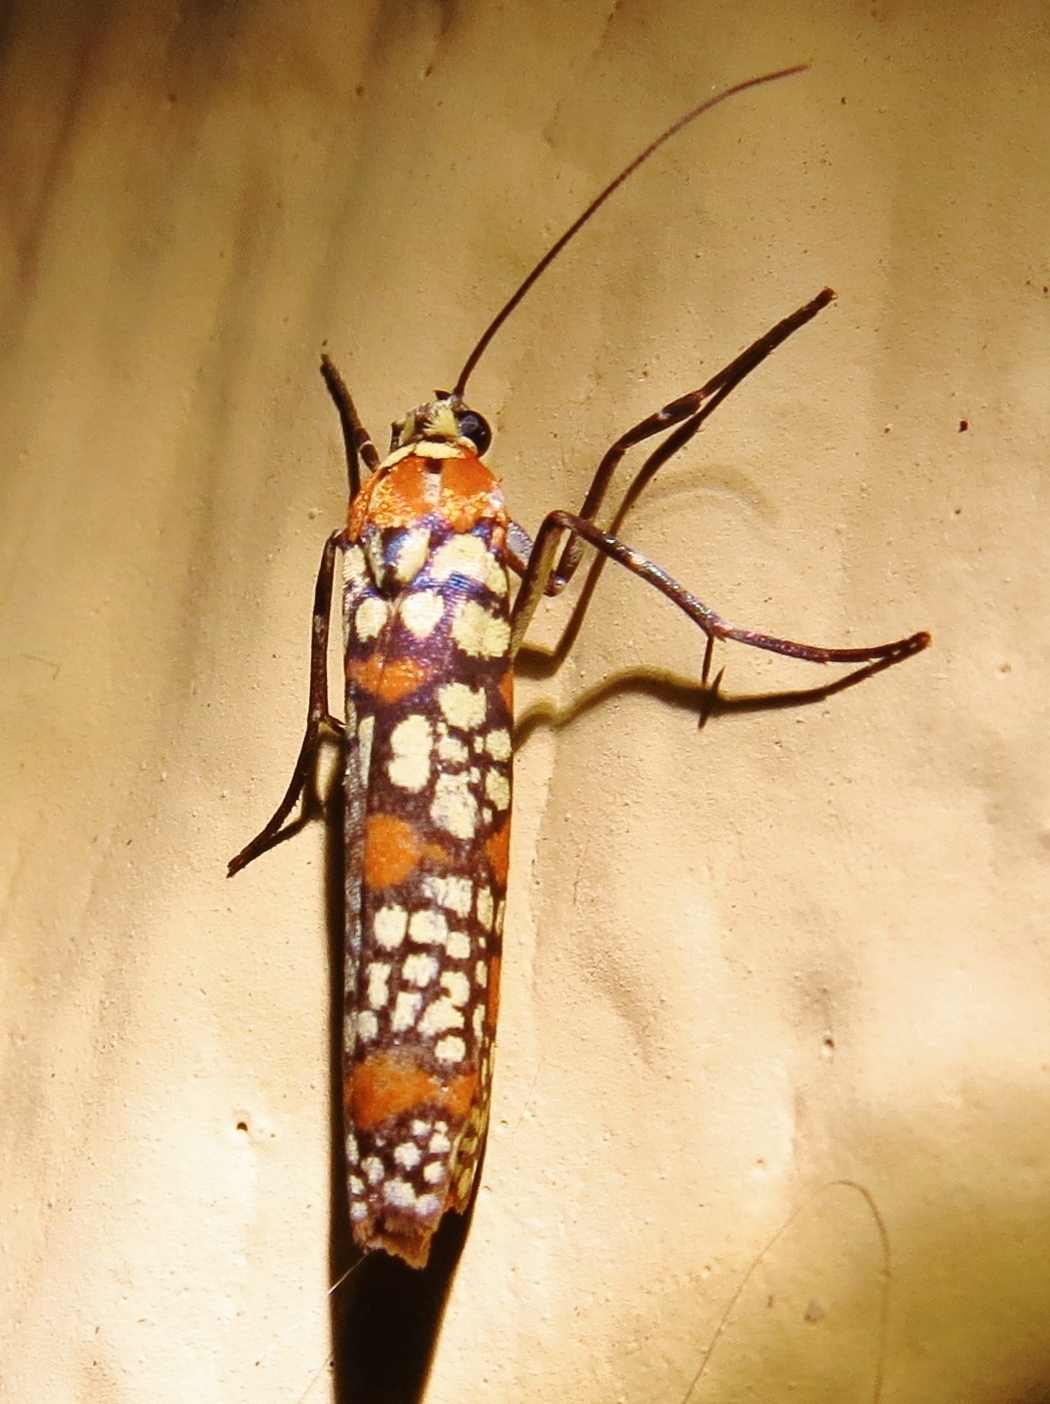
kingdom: Animalia
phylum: Arthropoda
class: Insecta
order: Lepidoptera
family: Attevidae
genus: Atteva
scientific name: Atteva punctella
